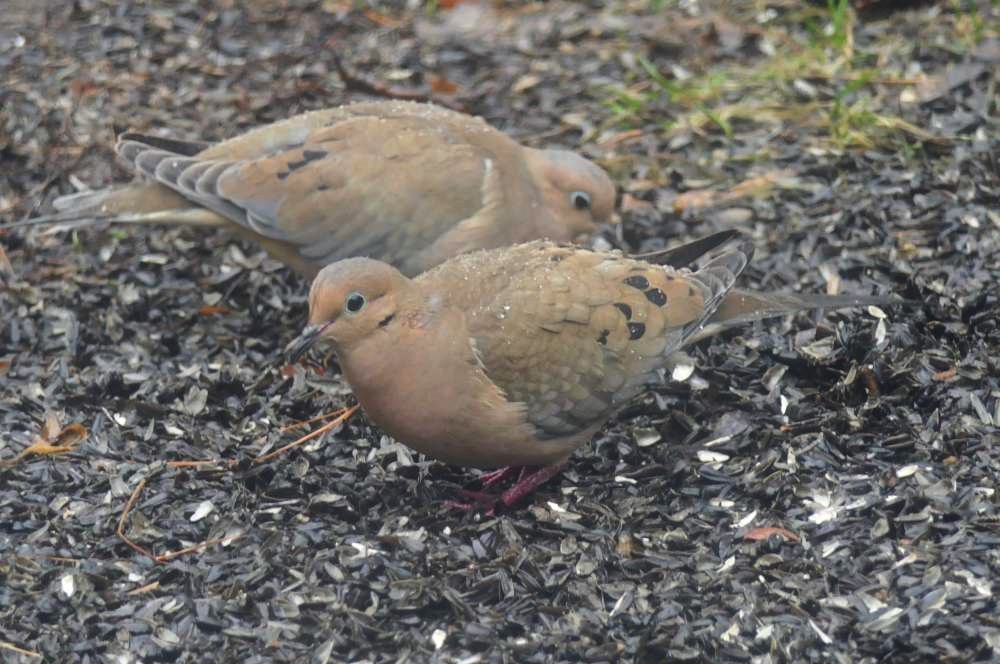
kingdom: Animalia
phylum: Chordata
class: Aves
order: Columbiformes
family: Columbidae
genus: Zenaida
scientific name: Zenaida macroura
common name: Mourning dove
